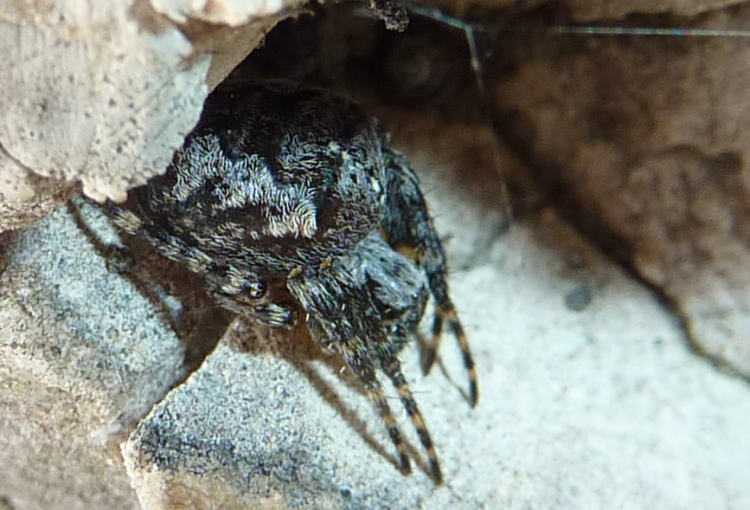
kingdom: Animalia
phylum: Arthropoda
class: Arachnida
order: Araneae
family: Araneidae
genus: Araneus
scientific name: Araneus diadematus
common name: Cross orbweaver
